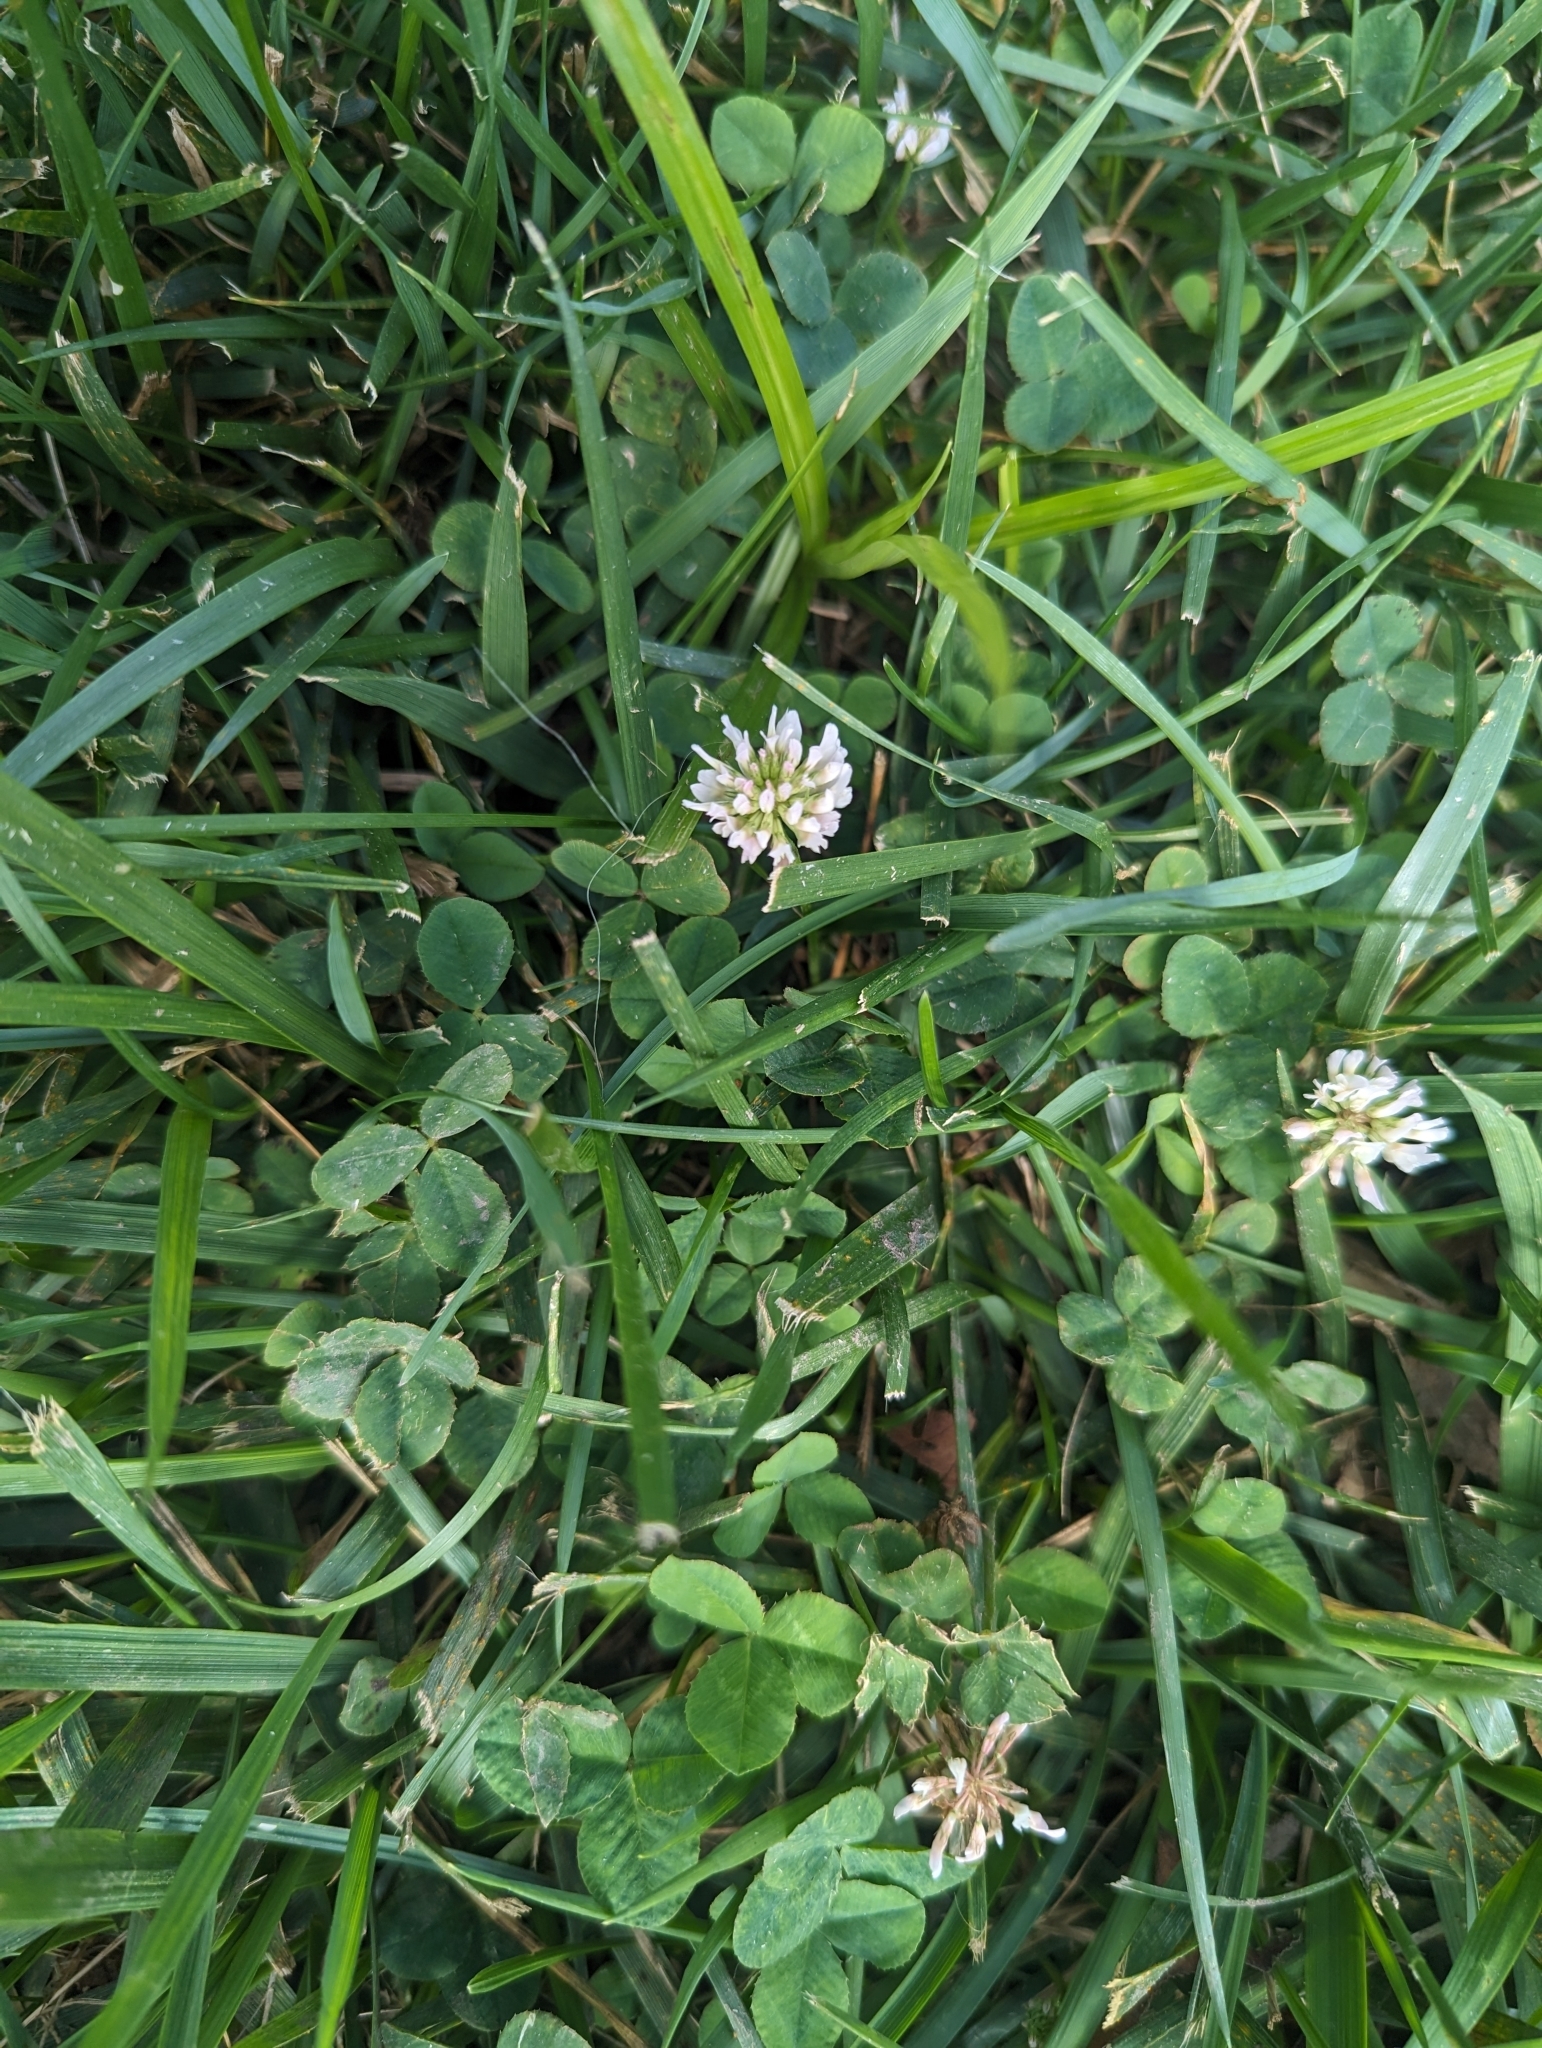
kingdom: Plantae
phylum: Tracheophyta
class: Magnoliopsida
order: Fabales
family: Fabaceae
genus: Trifolium
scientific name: Trifolium repens
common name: White clover
